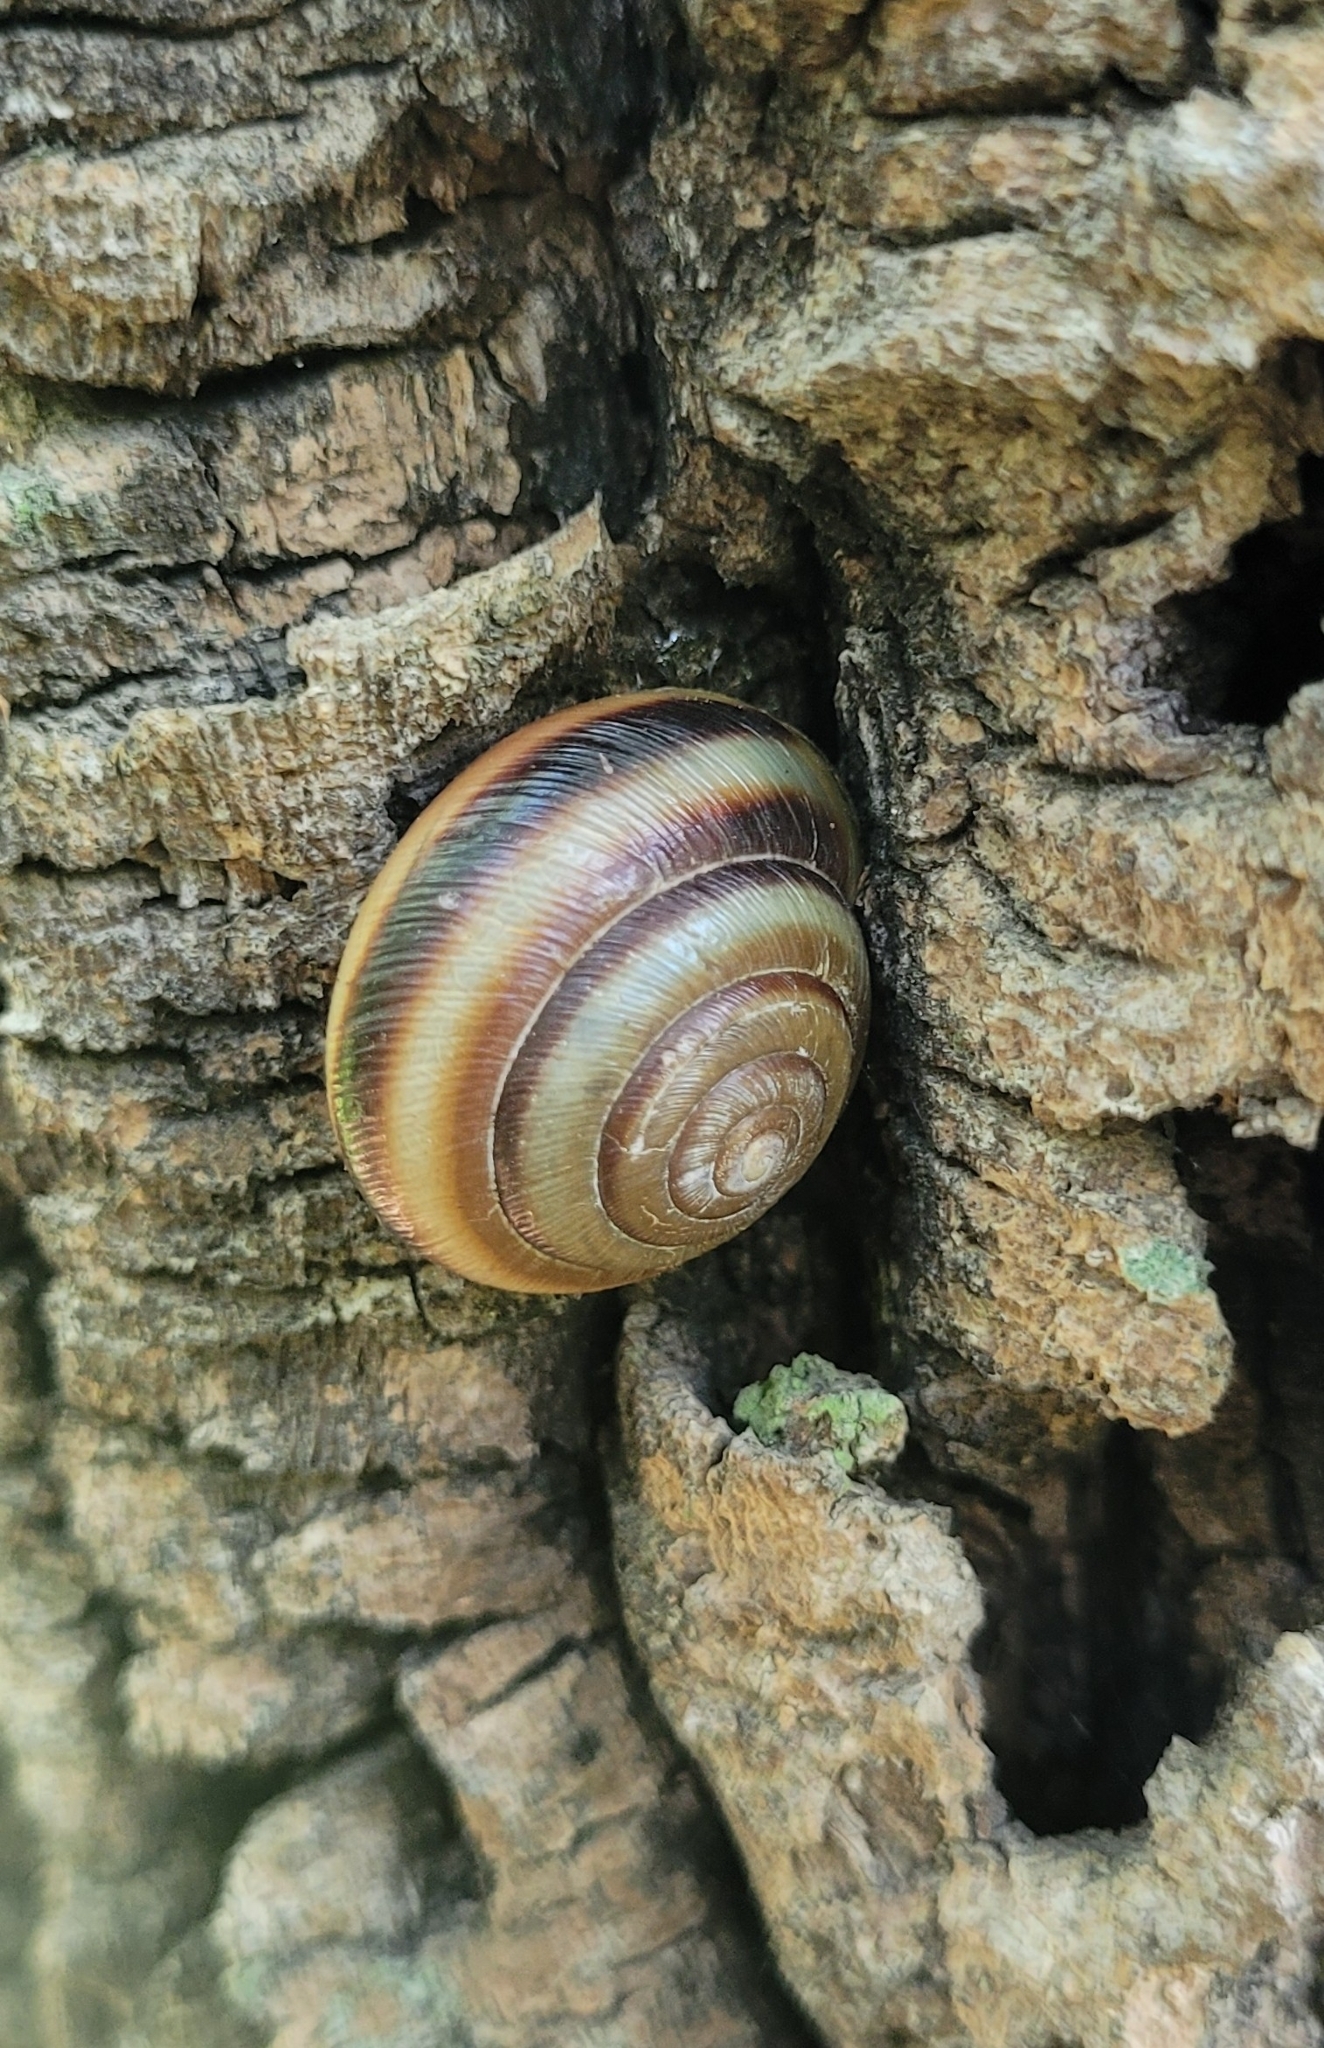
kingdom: Animalia
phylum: Mollusca
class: Gastropoda
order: Stylommatophora
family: Camaenidae
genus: Karaftohelix
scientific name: Karaftohelix maackii
